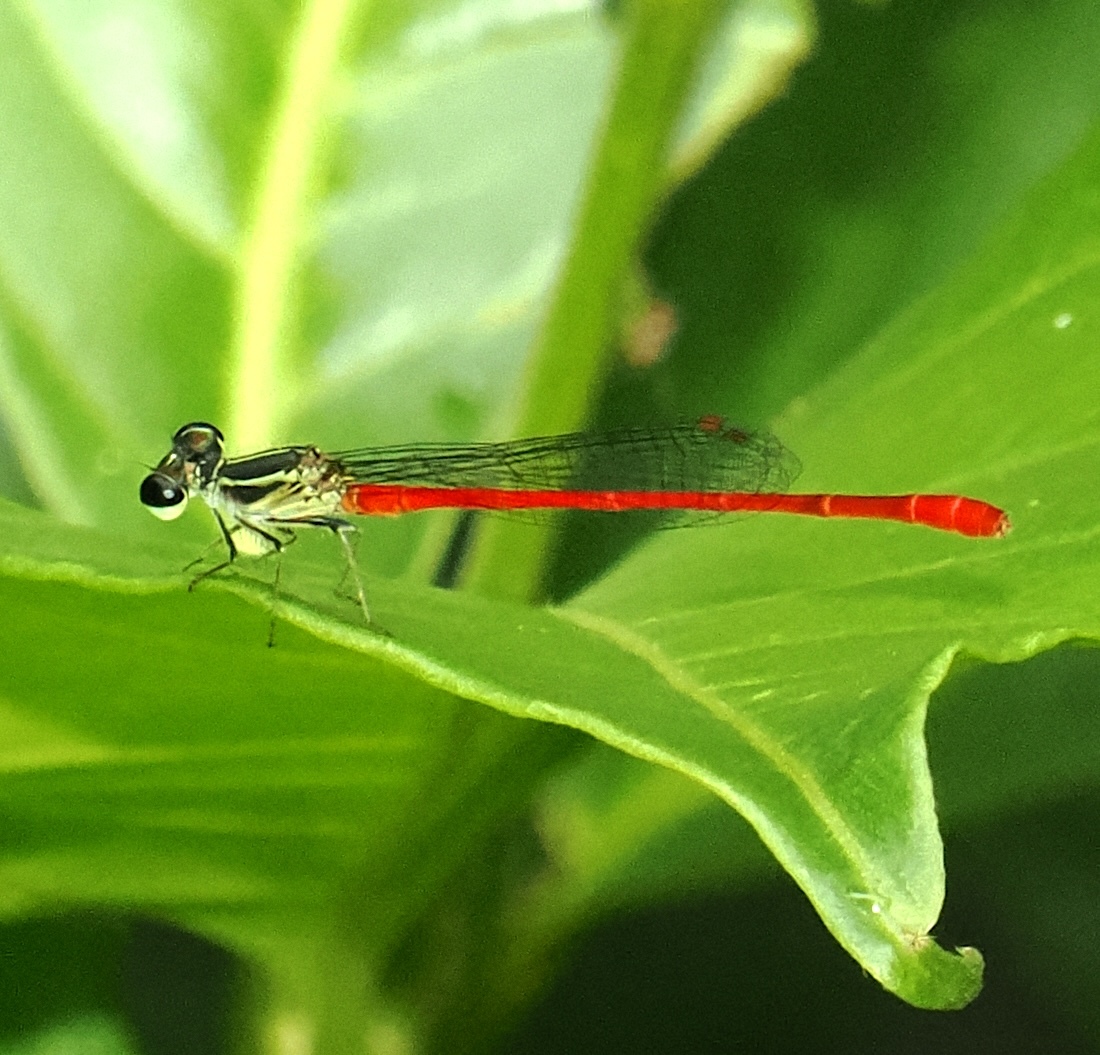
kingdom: Animalia
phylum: Arthropoda
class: Insecta
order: Odonata
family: Coenagrionidae
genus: Telebasis
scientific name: Telebasis filiola
